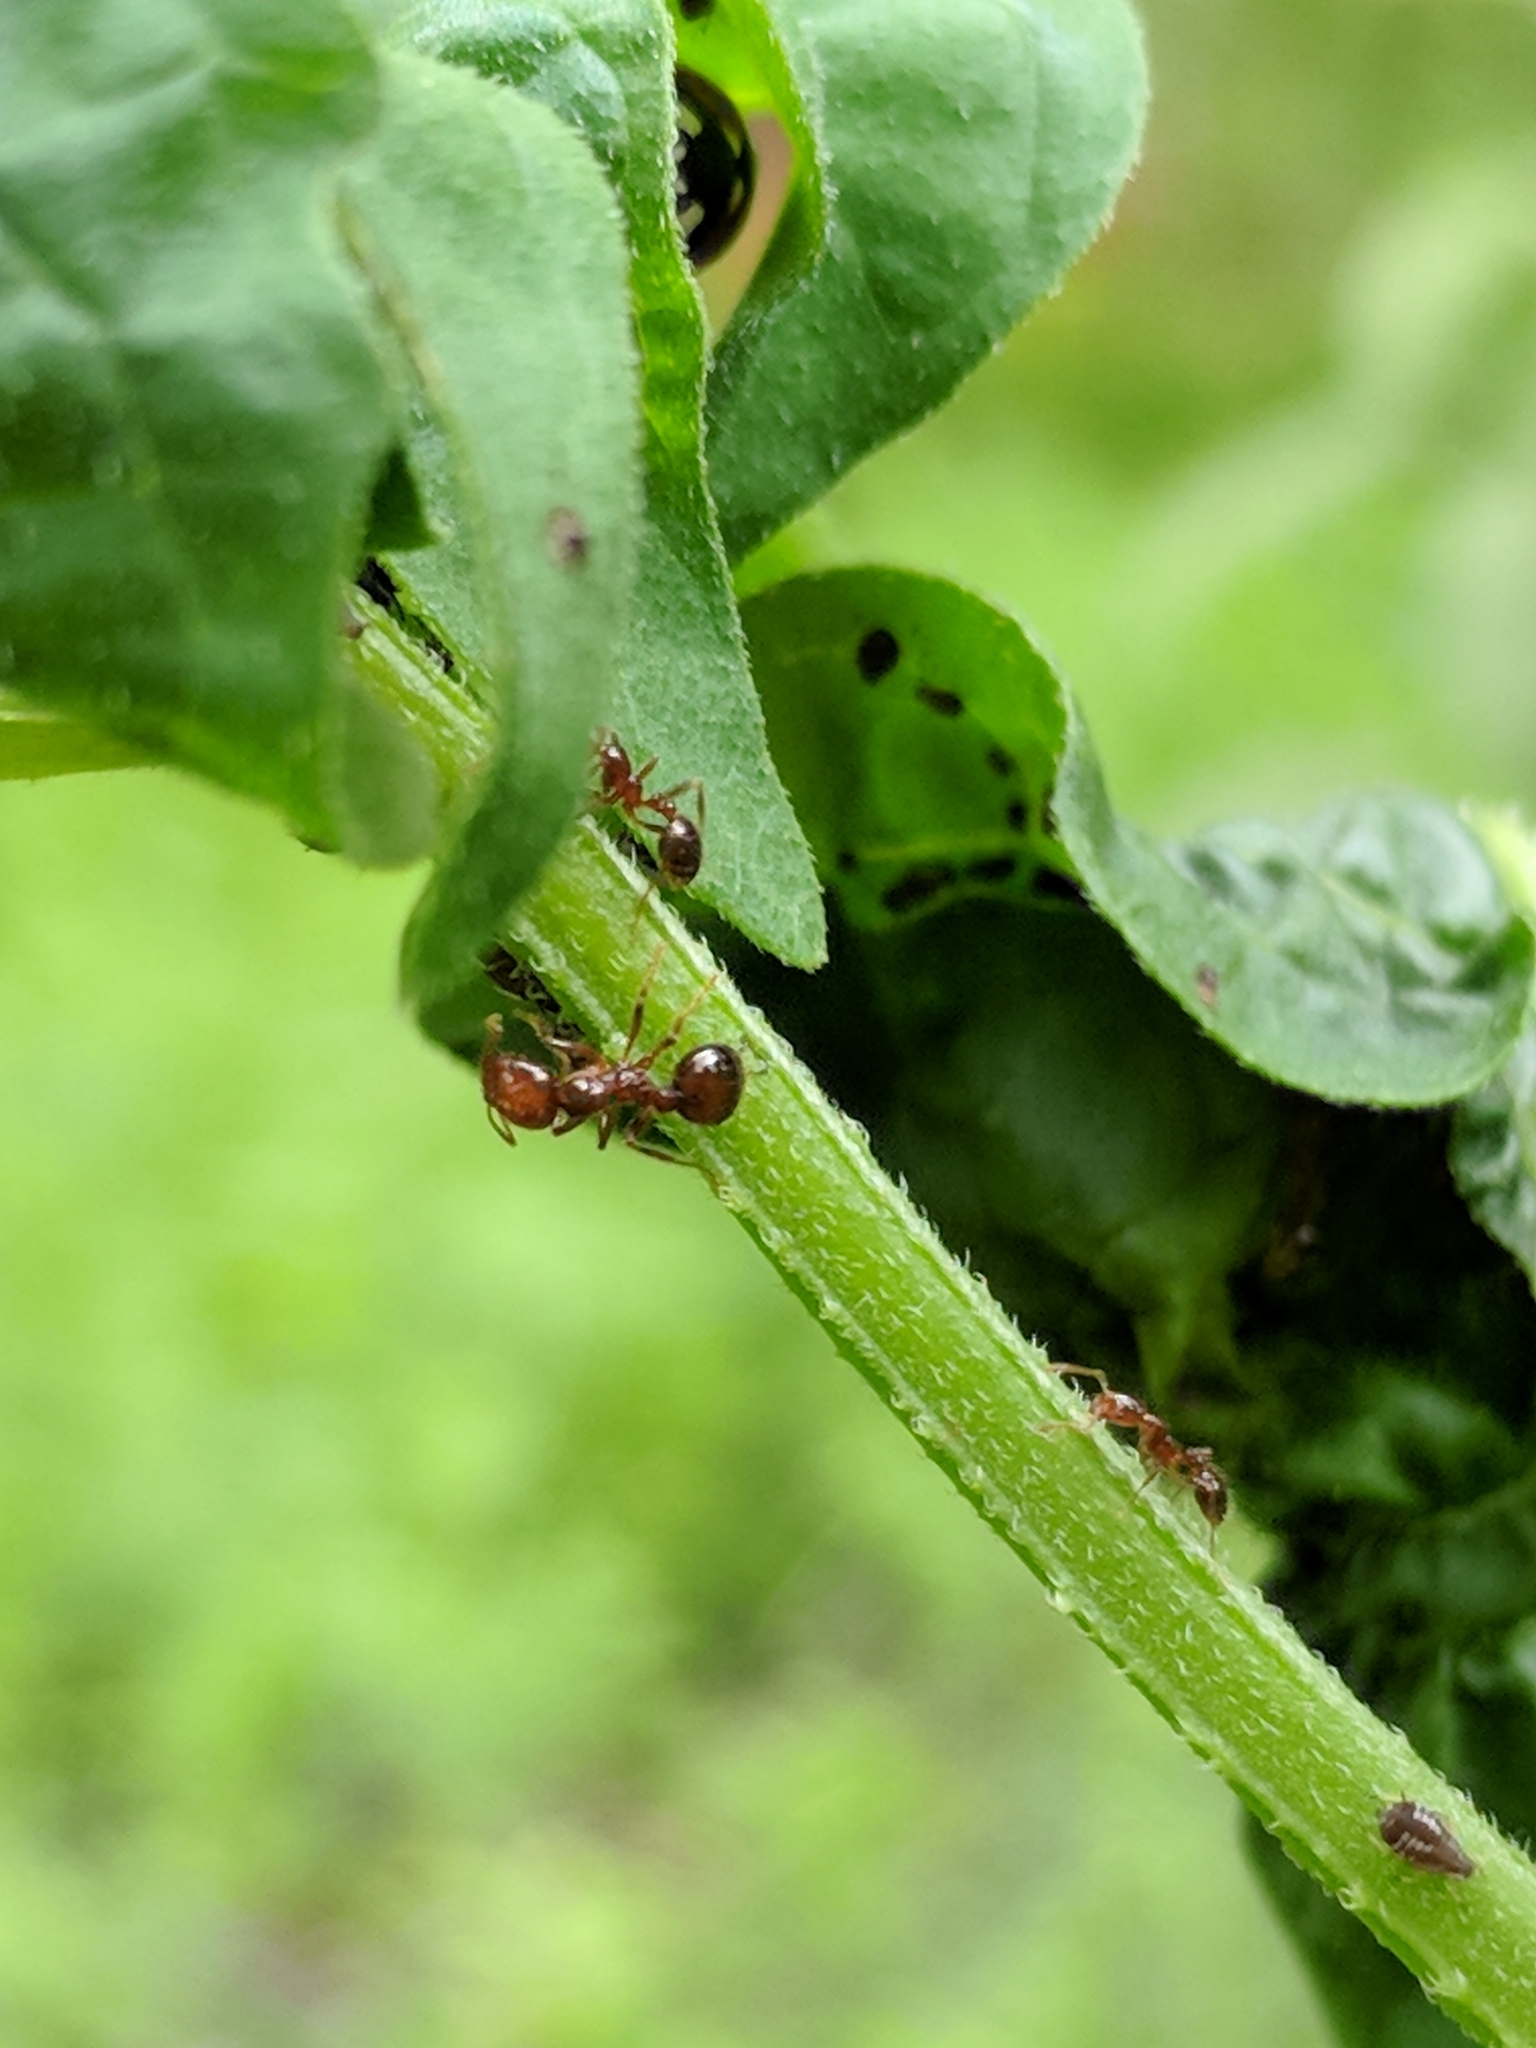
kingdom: Animalia
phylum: Arthropoda
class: Insecta
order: Hymenoptera
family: Formicidae
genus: Solenopsis
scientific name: Solenopsis invicta
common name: Red imported fire ant
